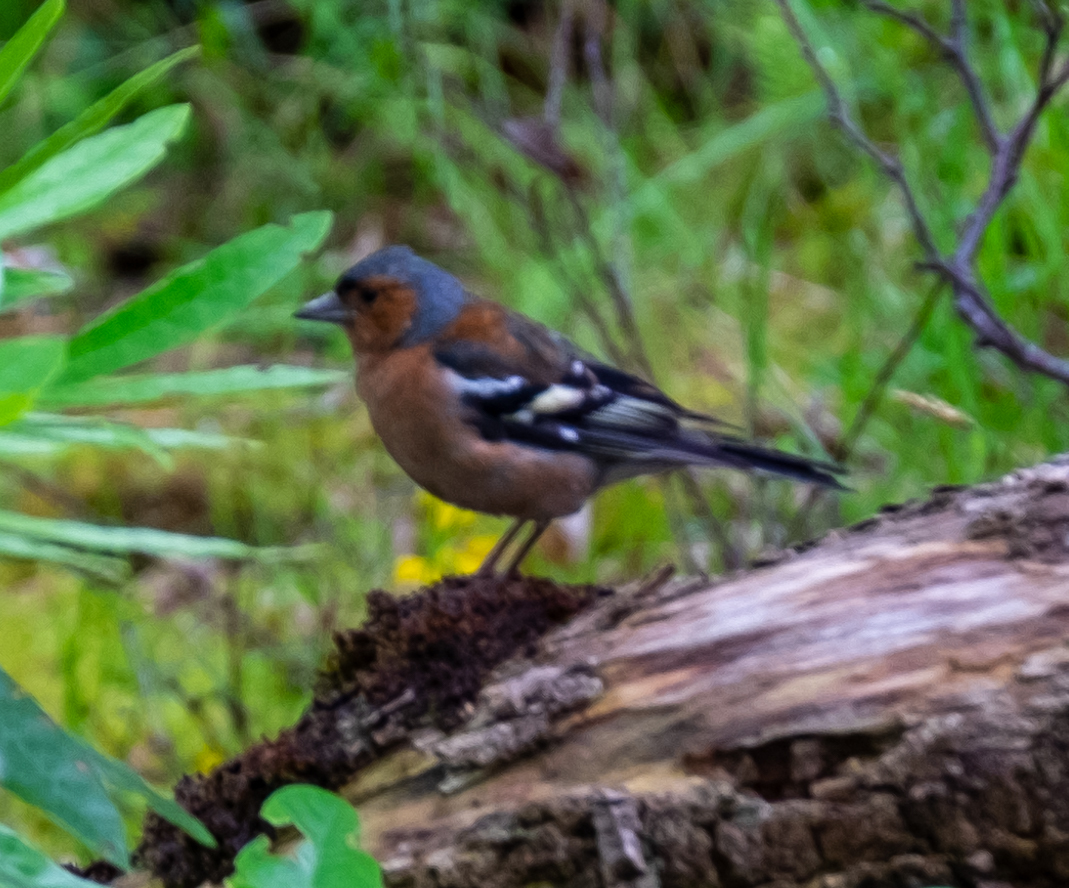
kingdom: Animalia
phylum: Chordata
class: Aves
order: Passeriformes
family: Fringillidae
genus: Fringilla
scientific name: Fringilla coelebs
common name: Common chaffinch
